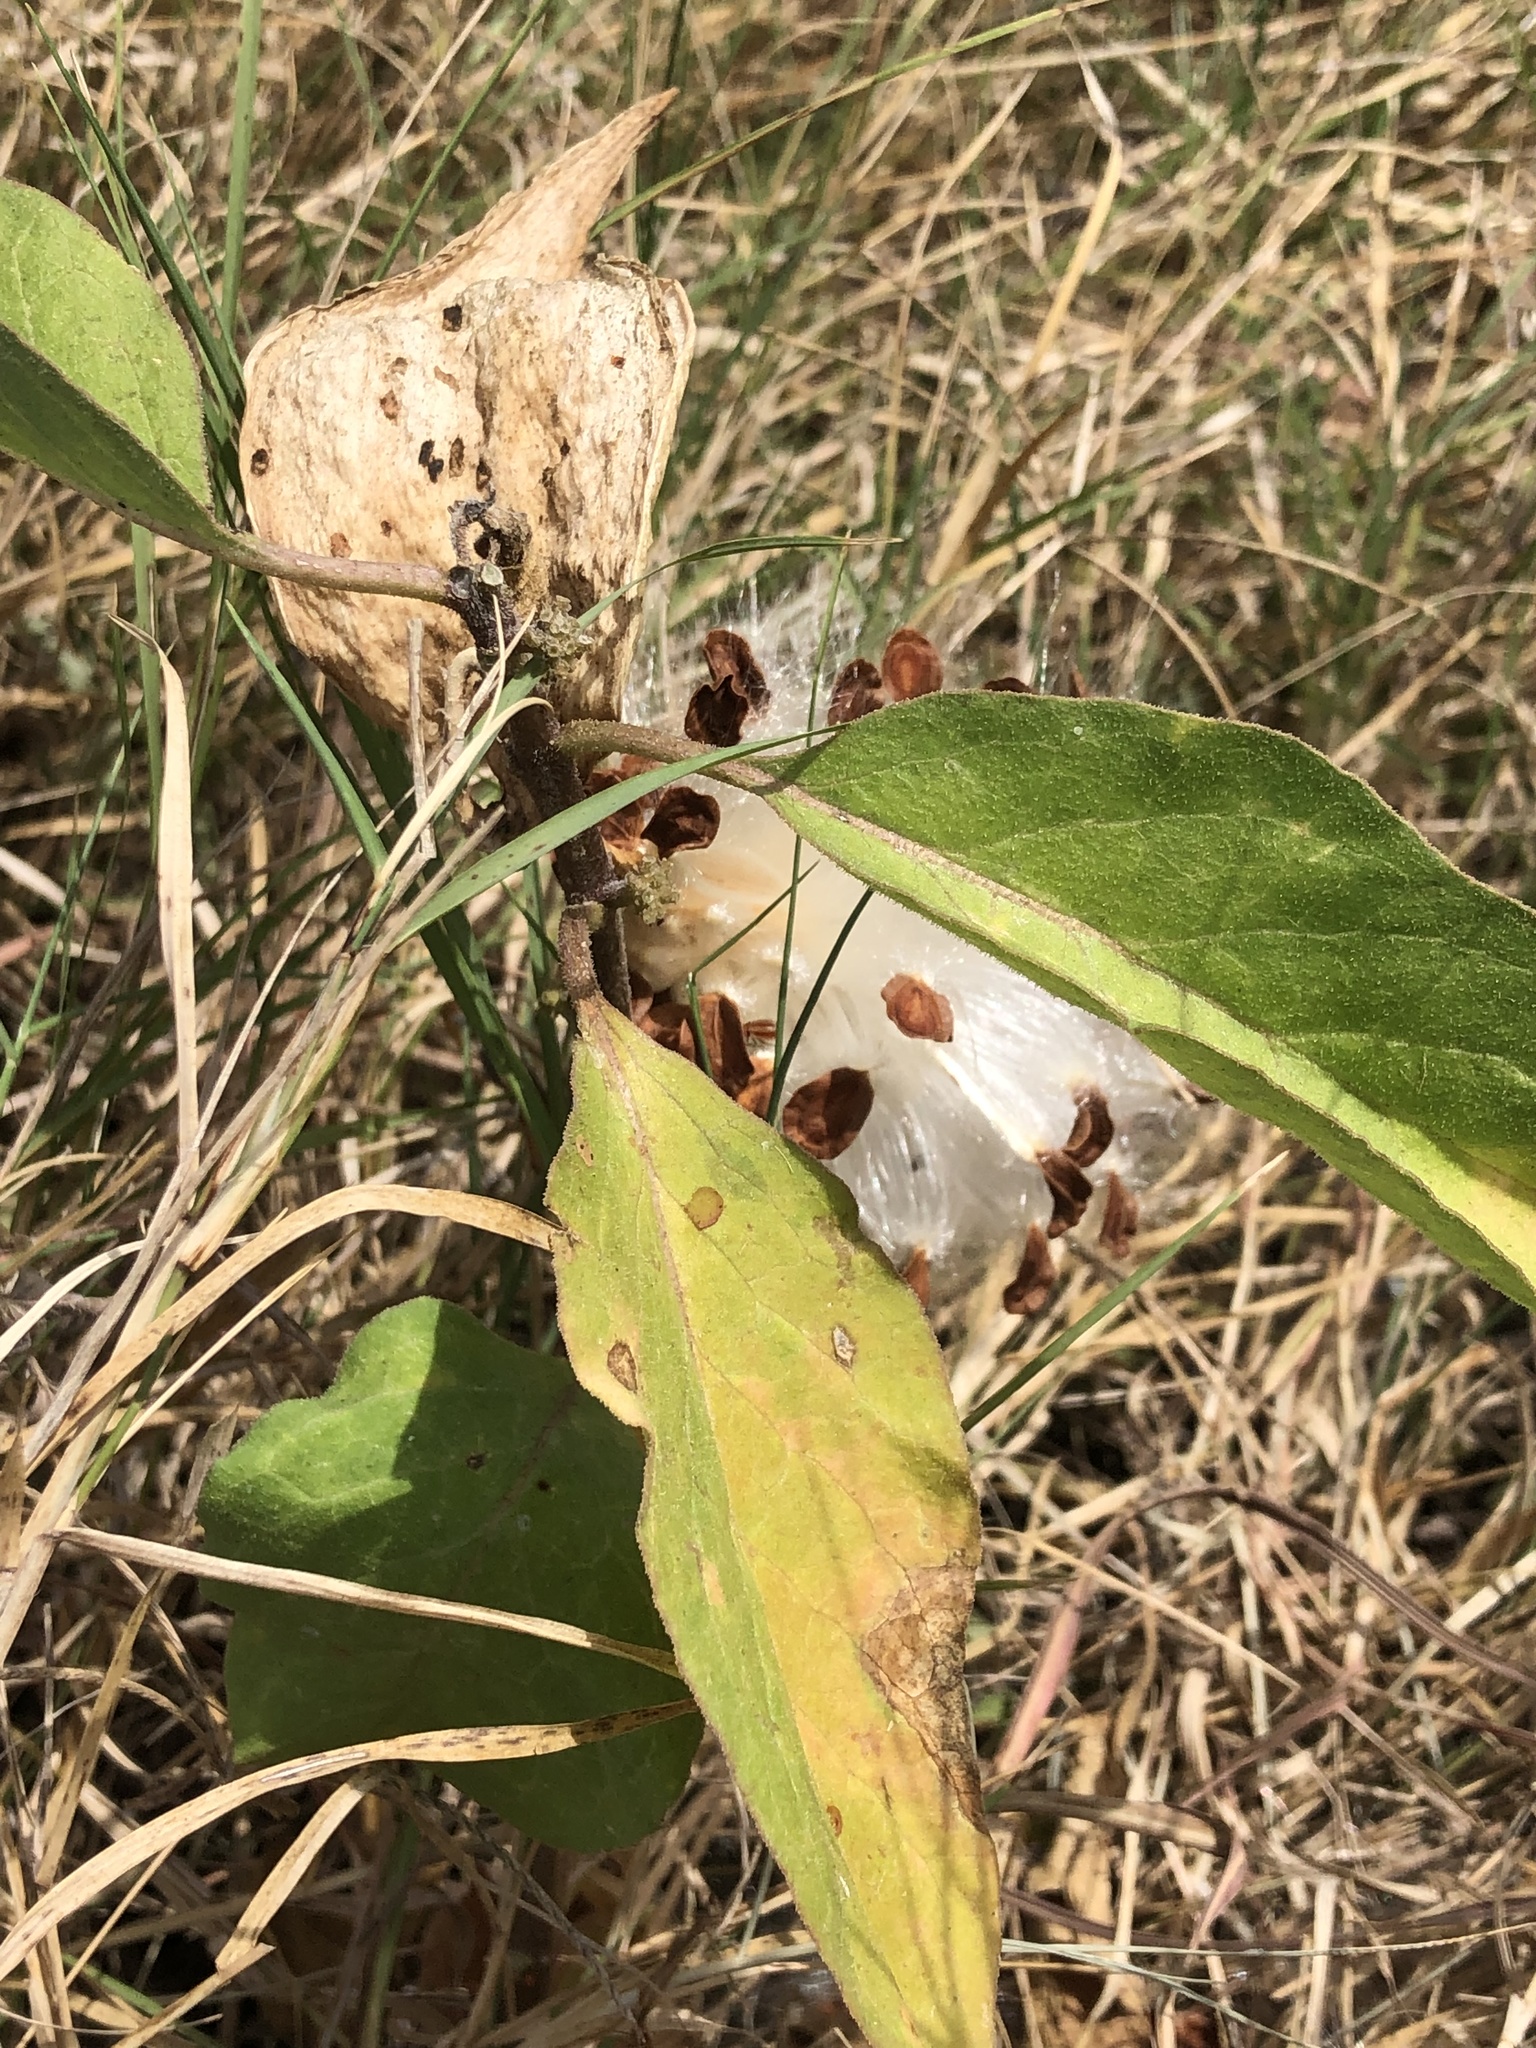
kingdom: Plantae
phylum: Tracheophyta
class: Magnoliopsida
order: Gentianales
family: Apocynaceae
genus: Asclepias
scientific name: Asclepias oenotheroides
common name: Zizotes milkweed
